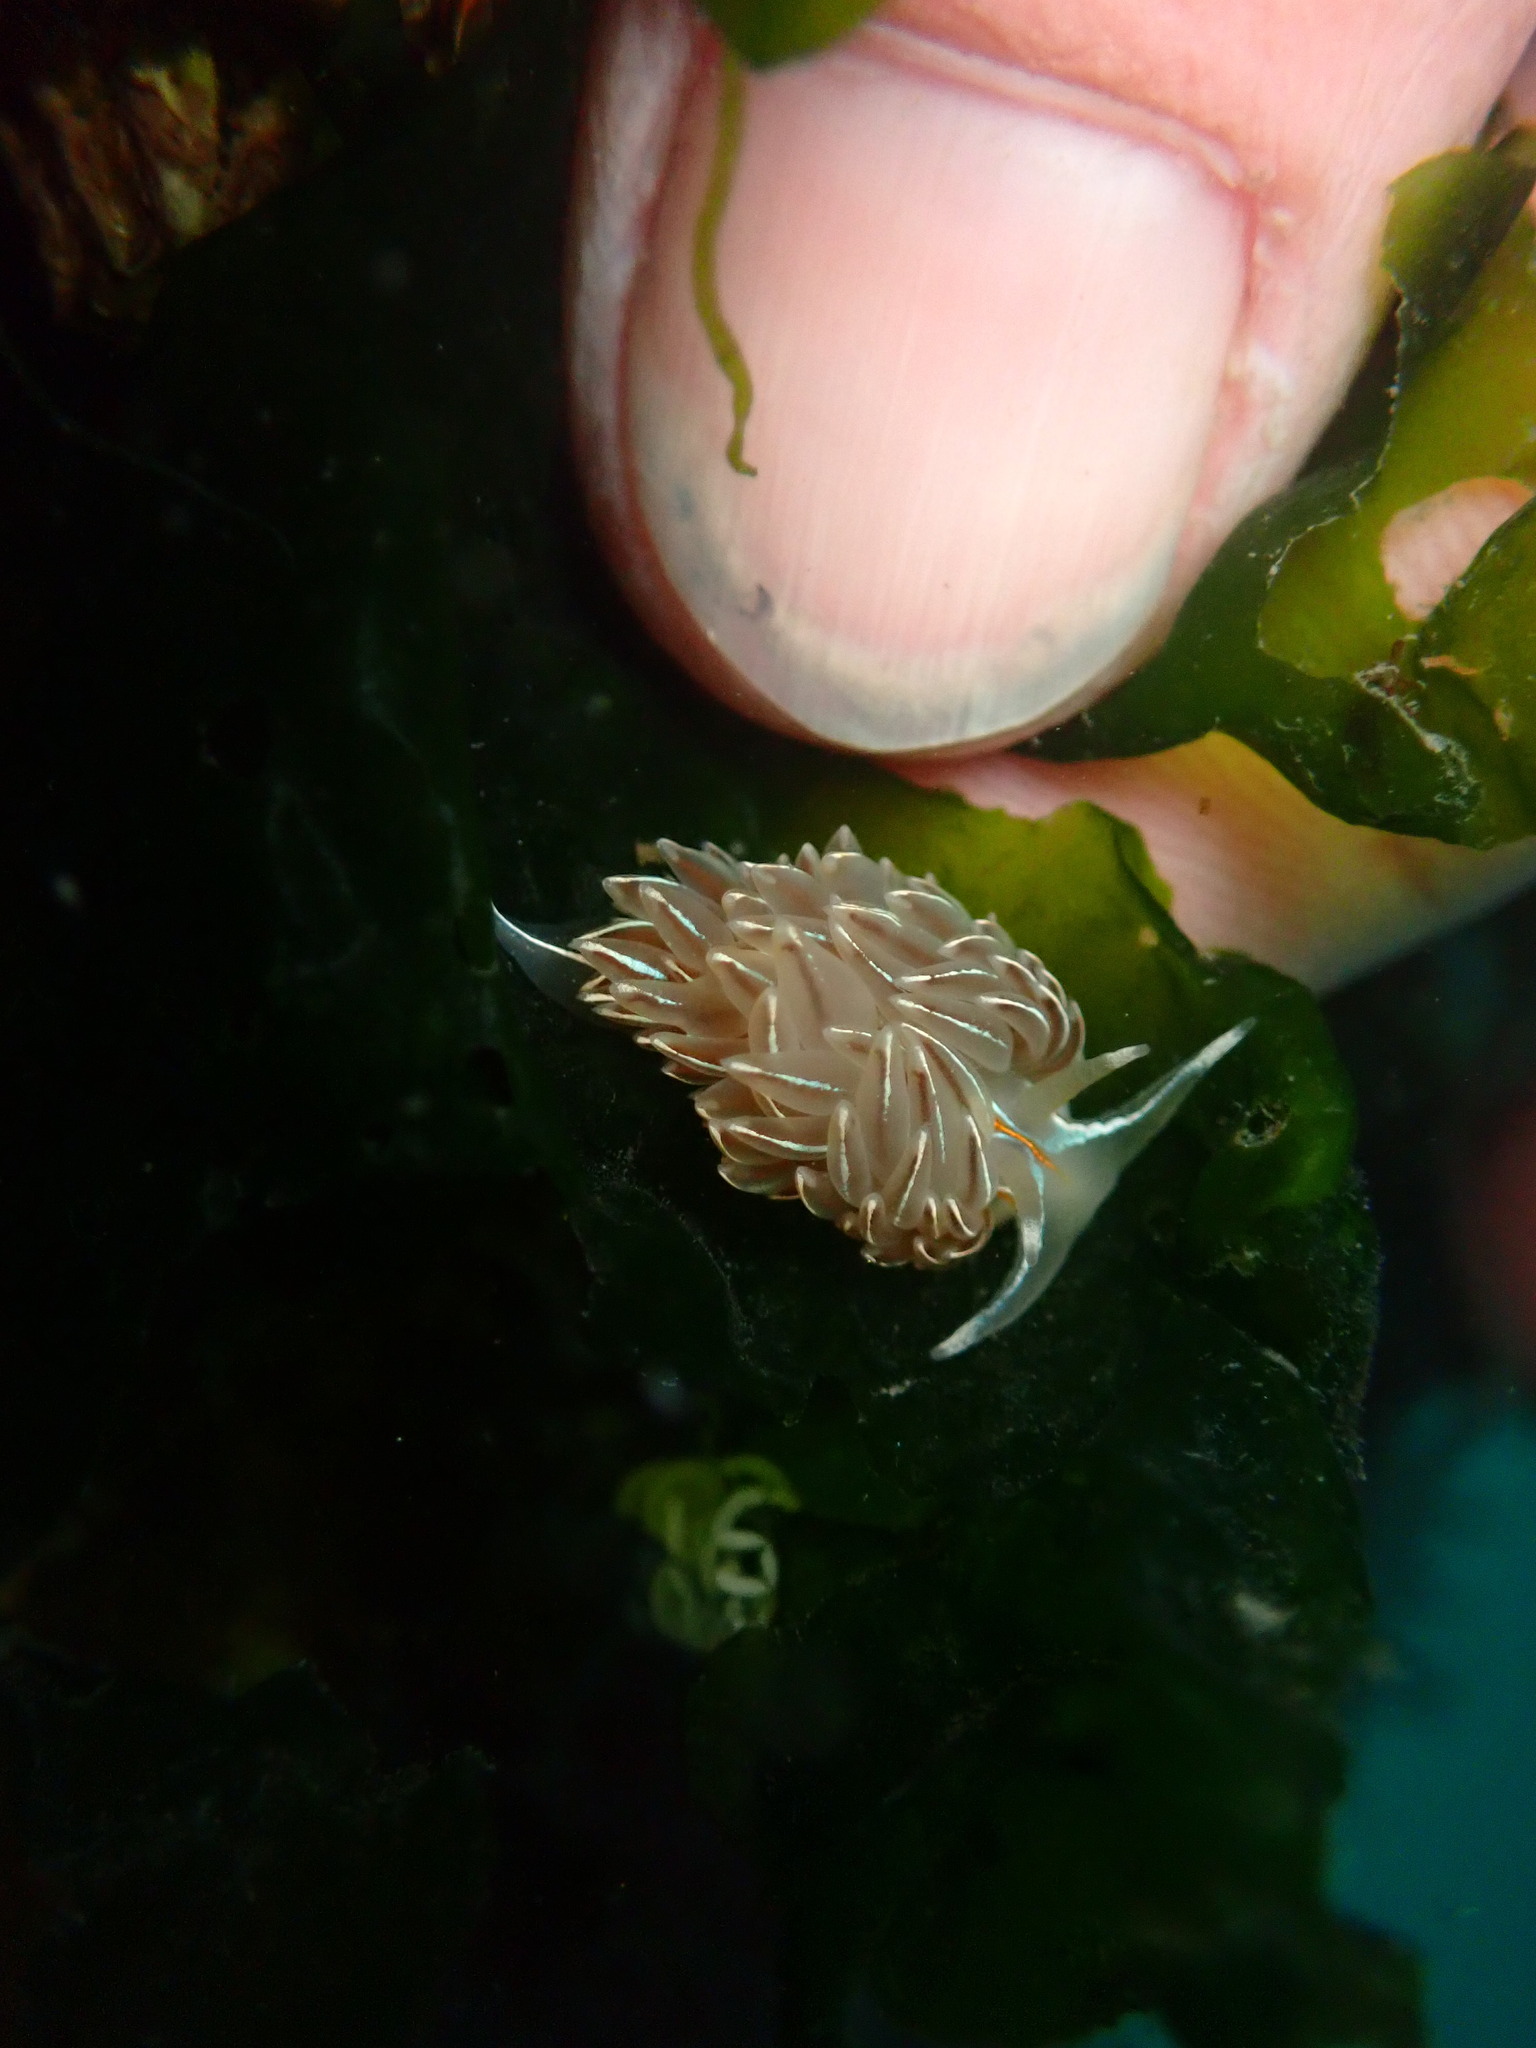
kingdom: Animalia
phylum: Mollusca
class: Gastropoda
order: Nudibranchia
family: Myrrhinidae
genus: Hermissenda
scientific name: Hermissenda crassicornis
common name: Hermissenda
